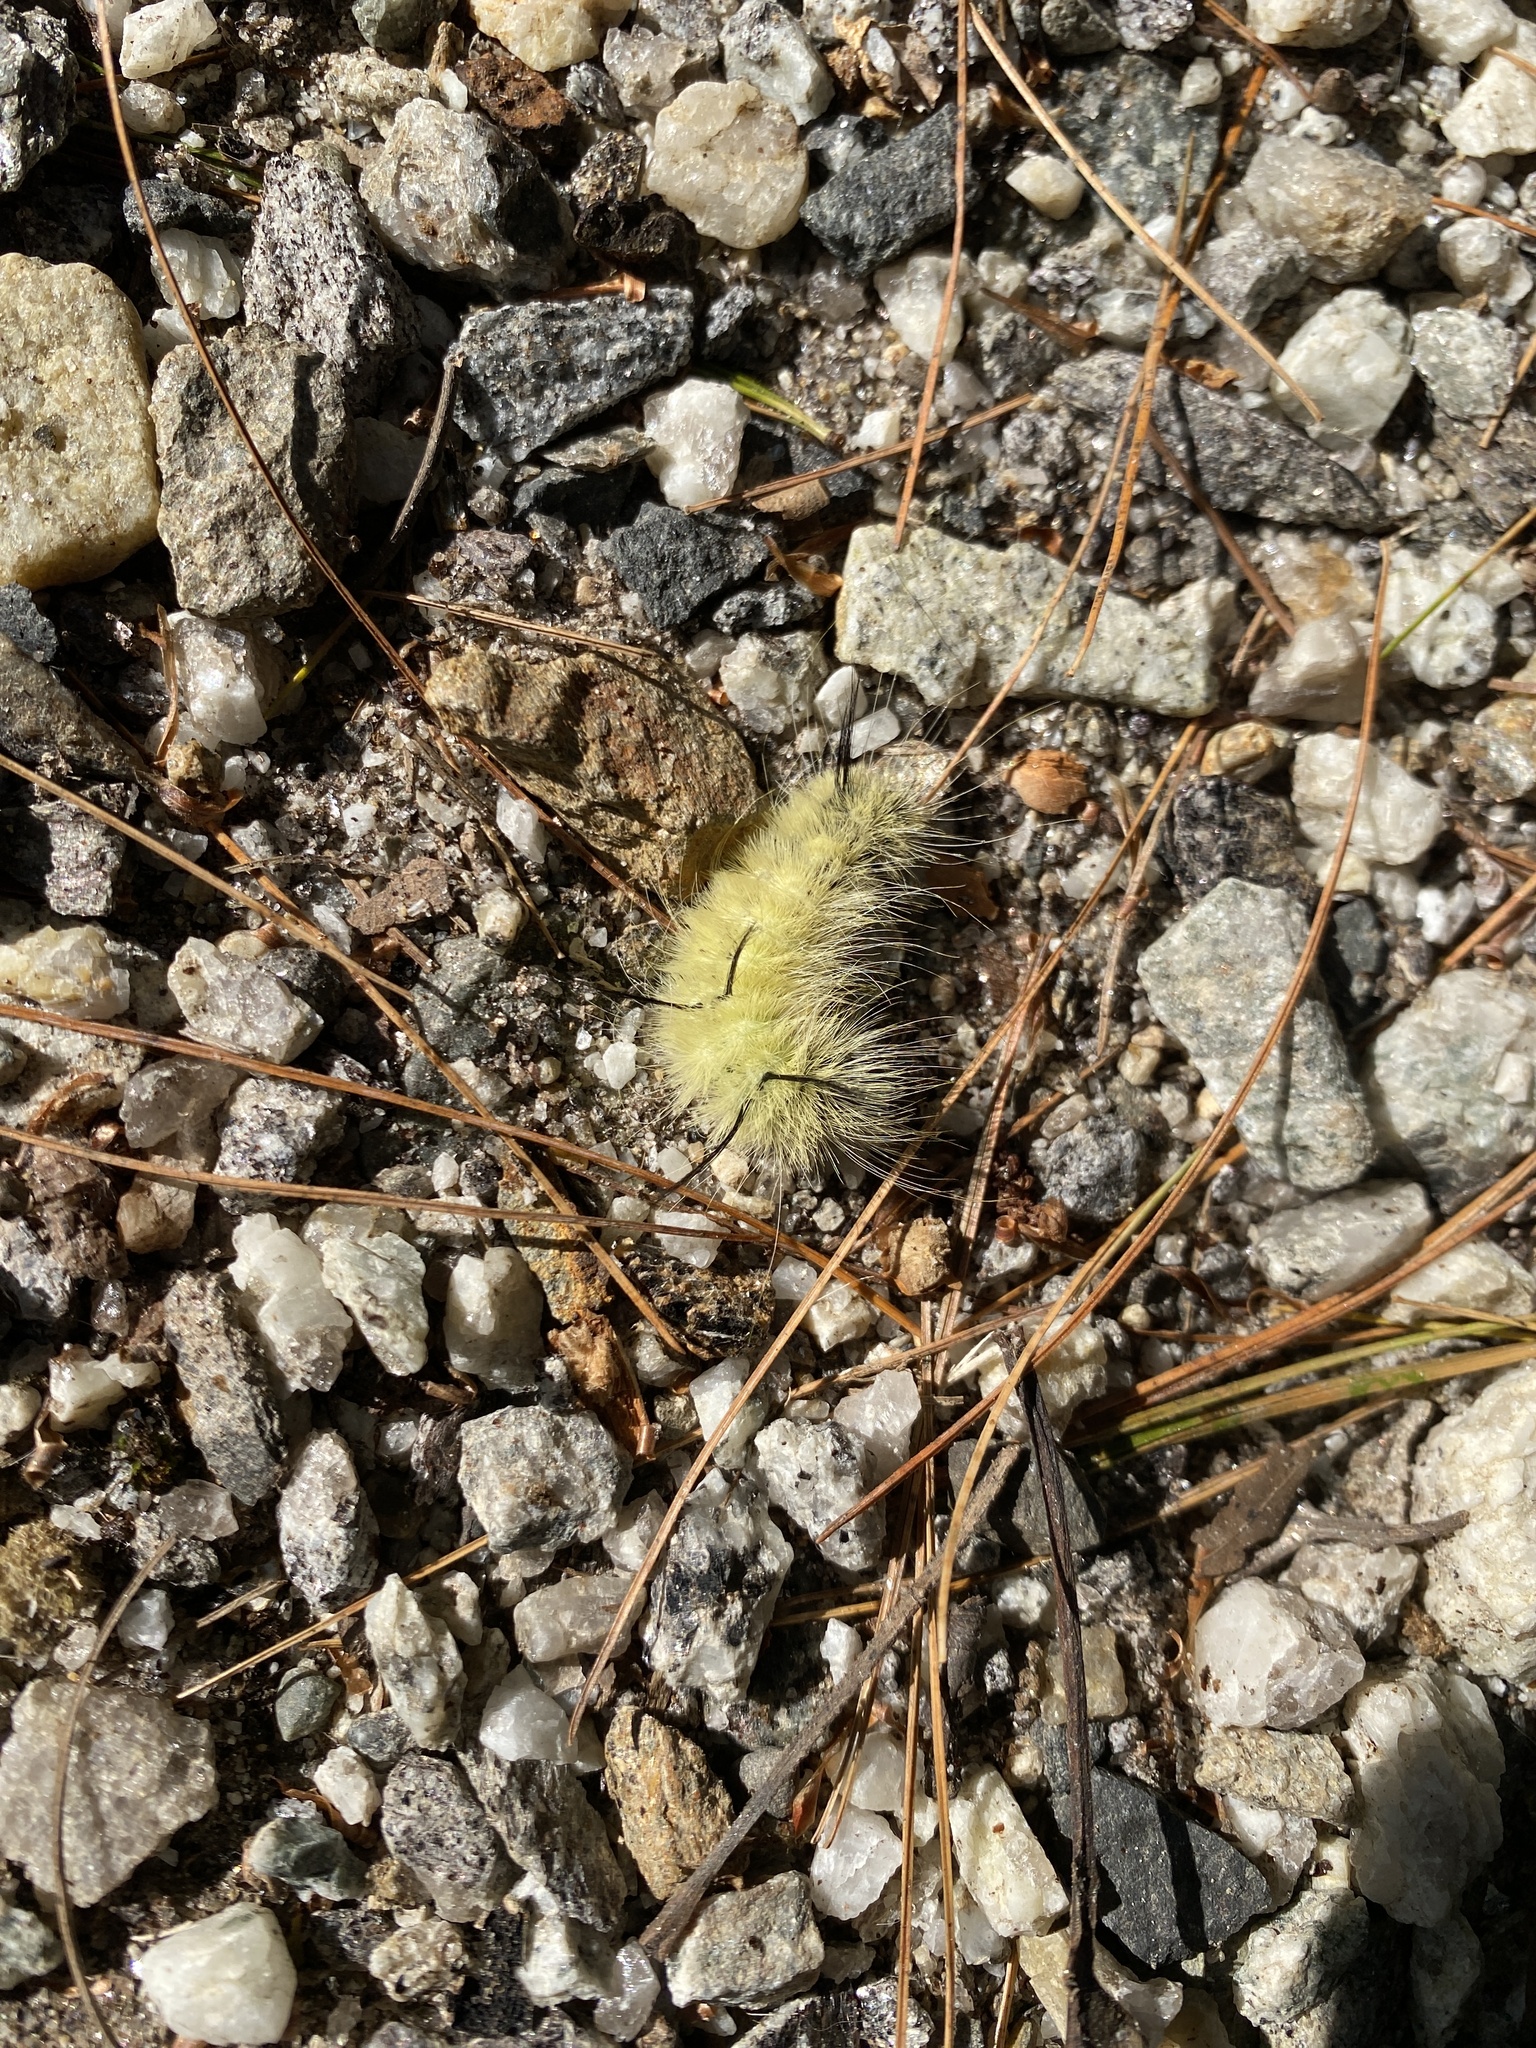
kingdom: Animalia
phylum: Arthropoda
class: Insecta
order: Lepidoptera
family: Noctuidae
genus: Acronicta
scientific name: Acronicta americana
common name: American dagger
